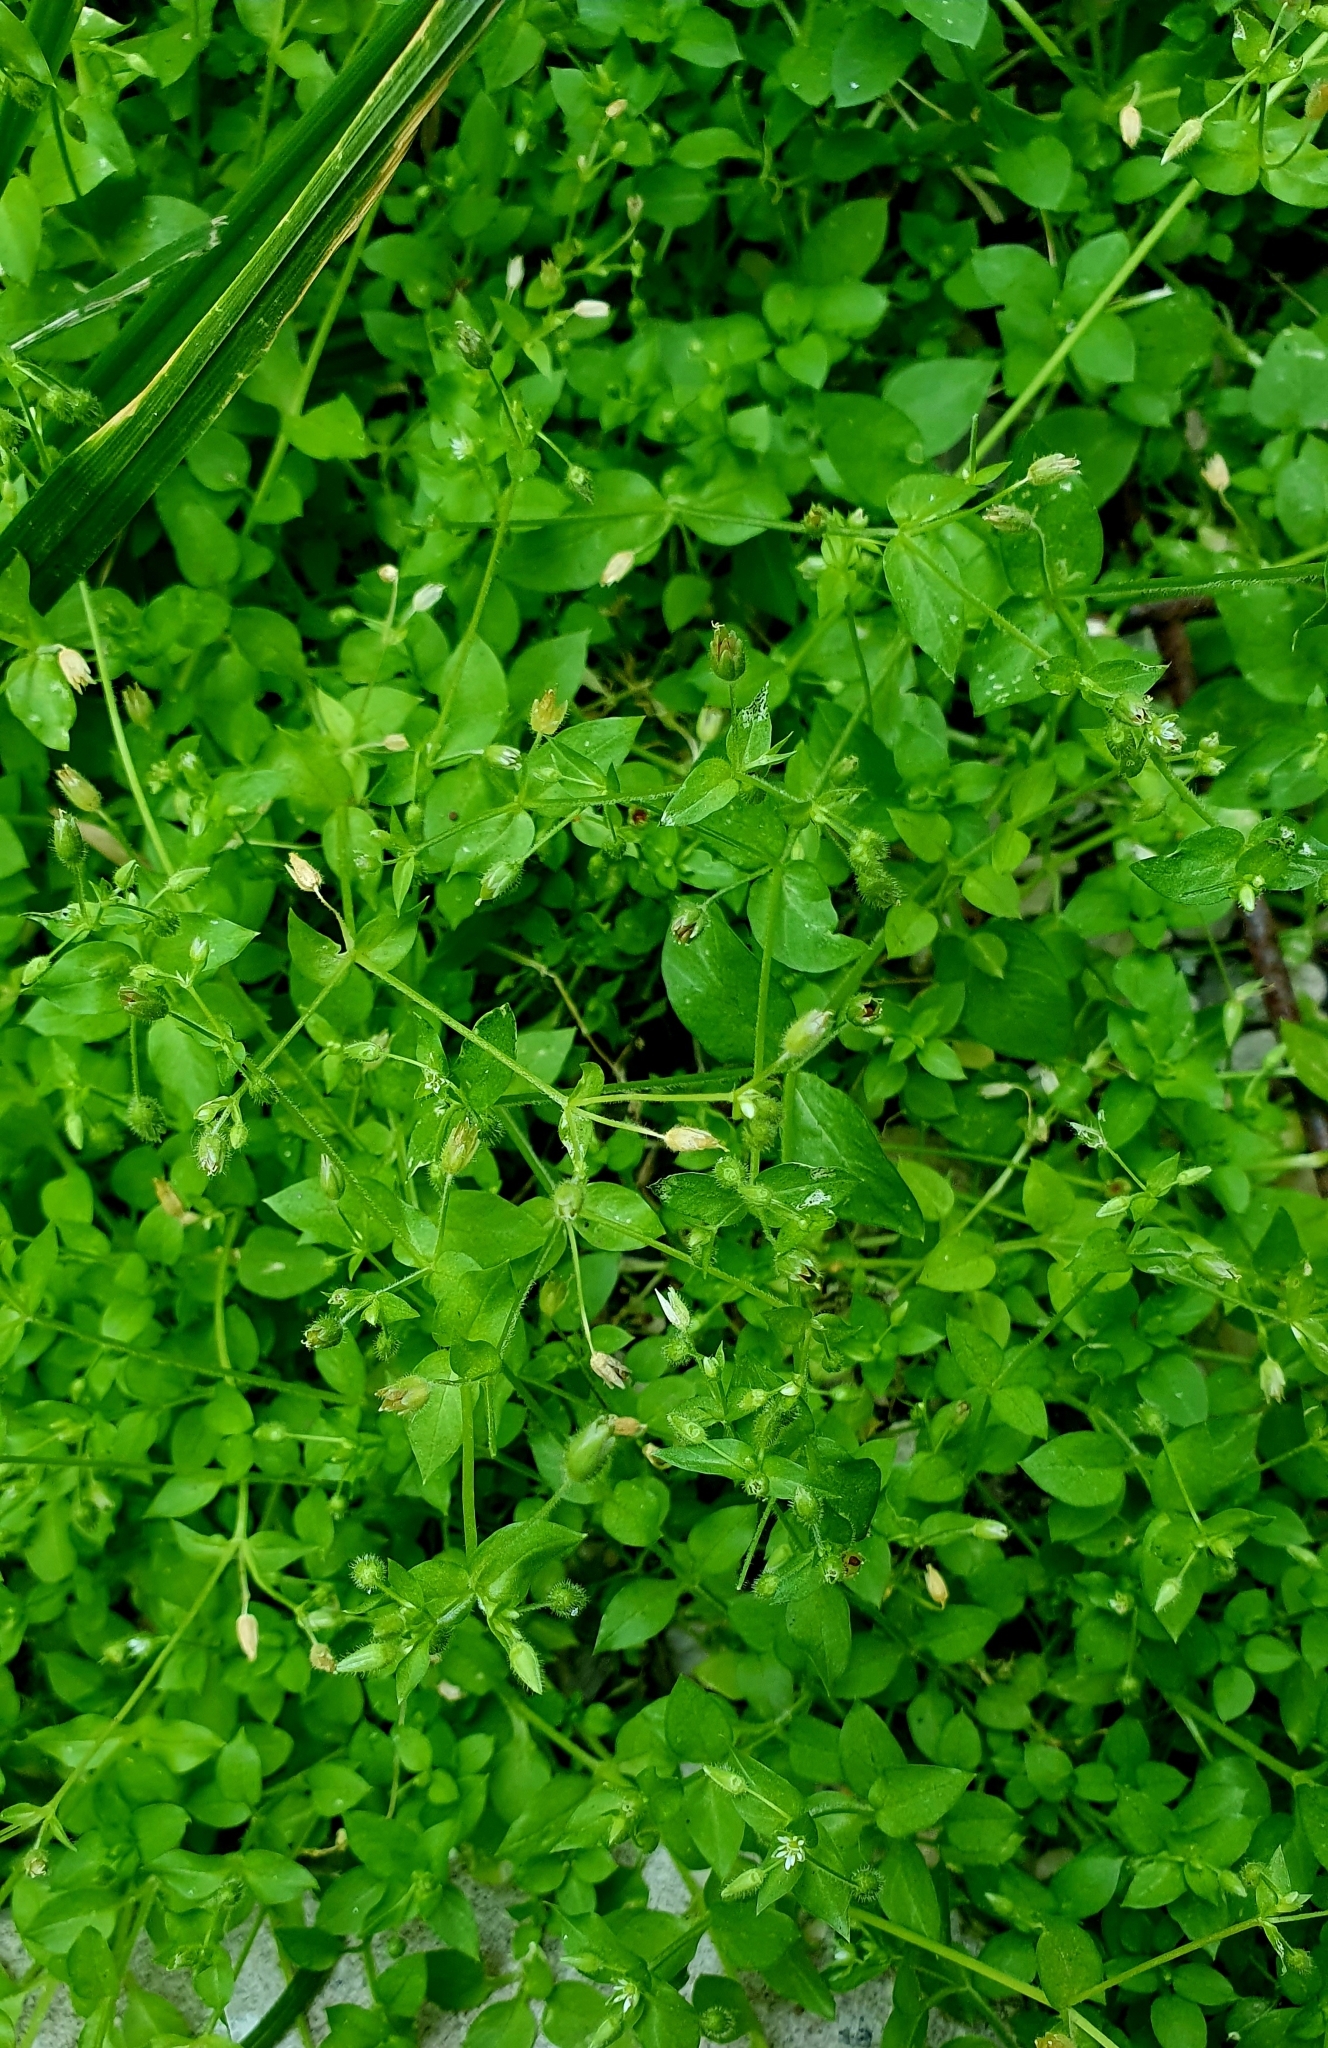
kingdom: Plantae
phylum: Tracheophyta
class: Magnoliopsida
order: Caryophyllales
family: Caryophyllaceae
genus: Stellaria
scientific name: Stellaria media
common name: Common chickweed
